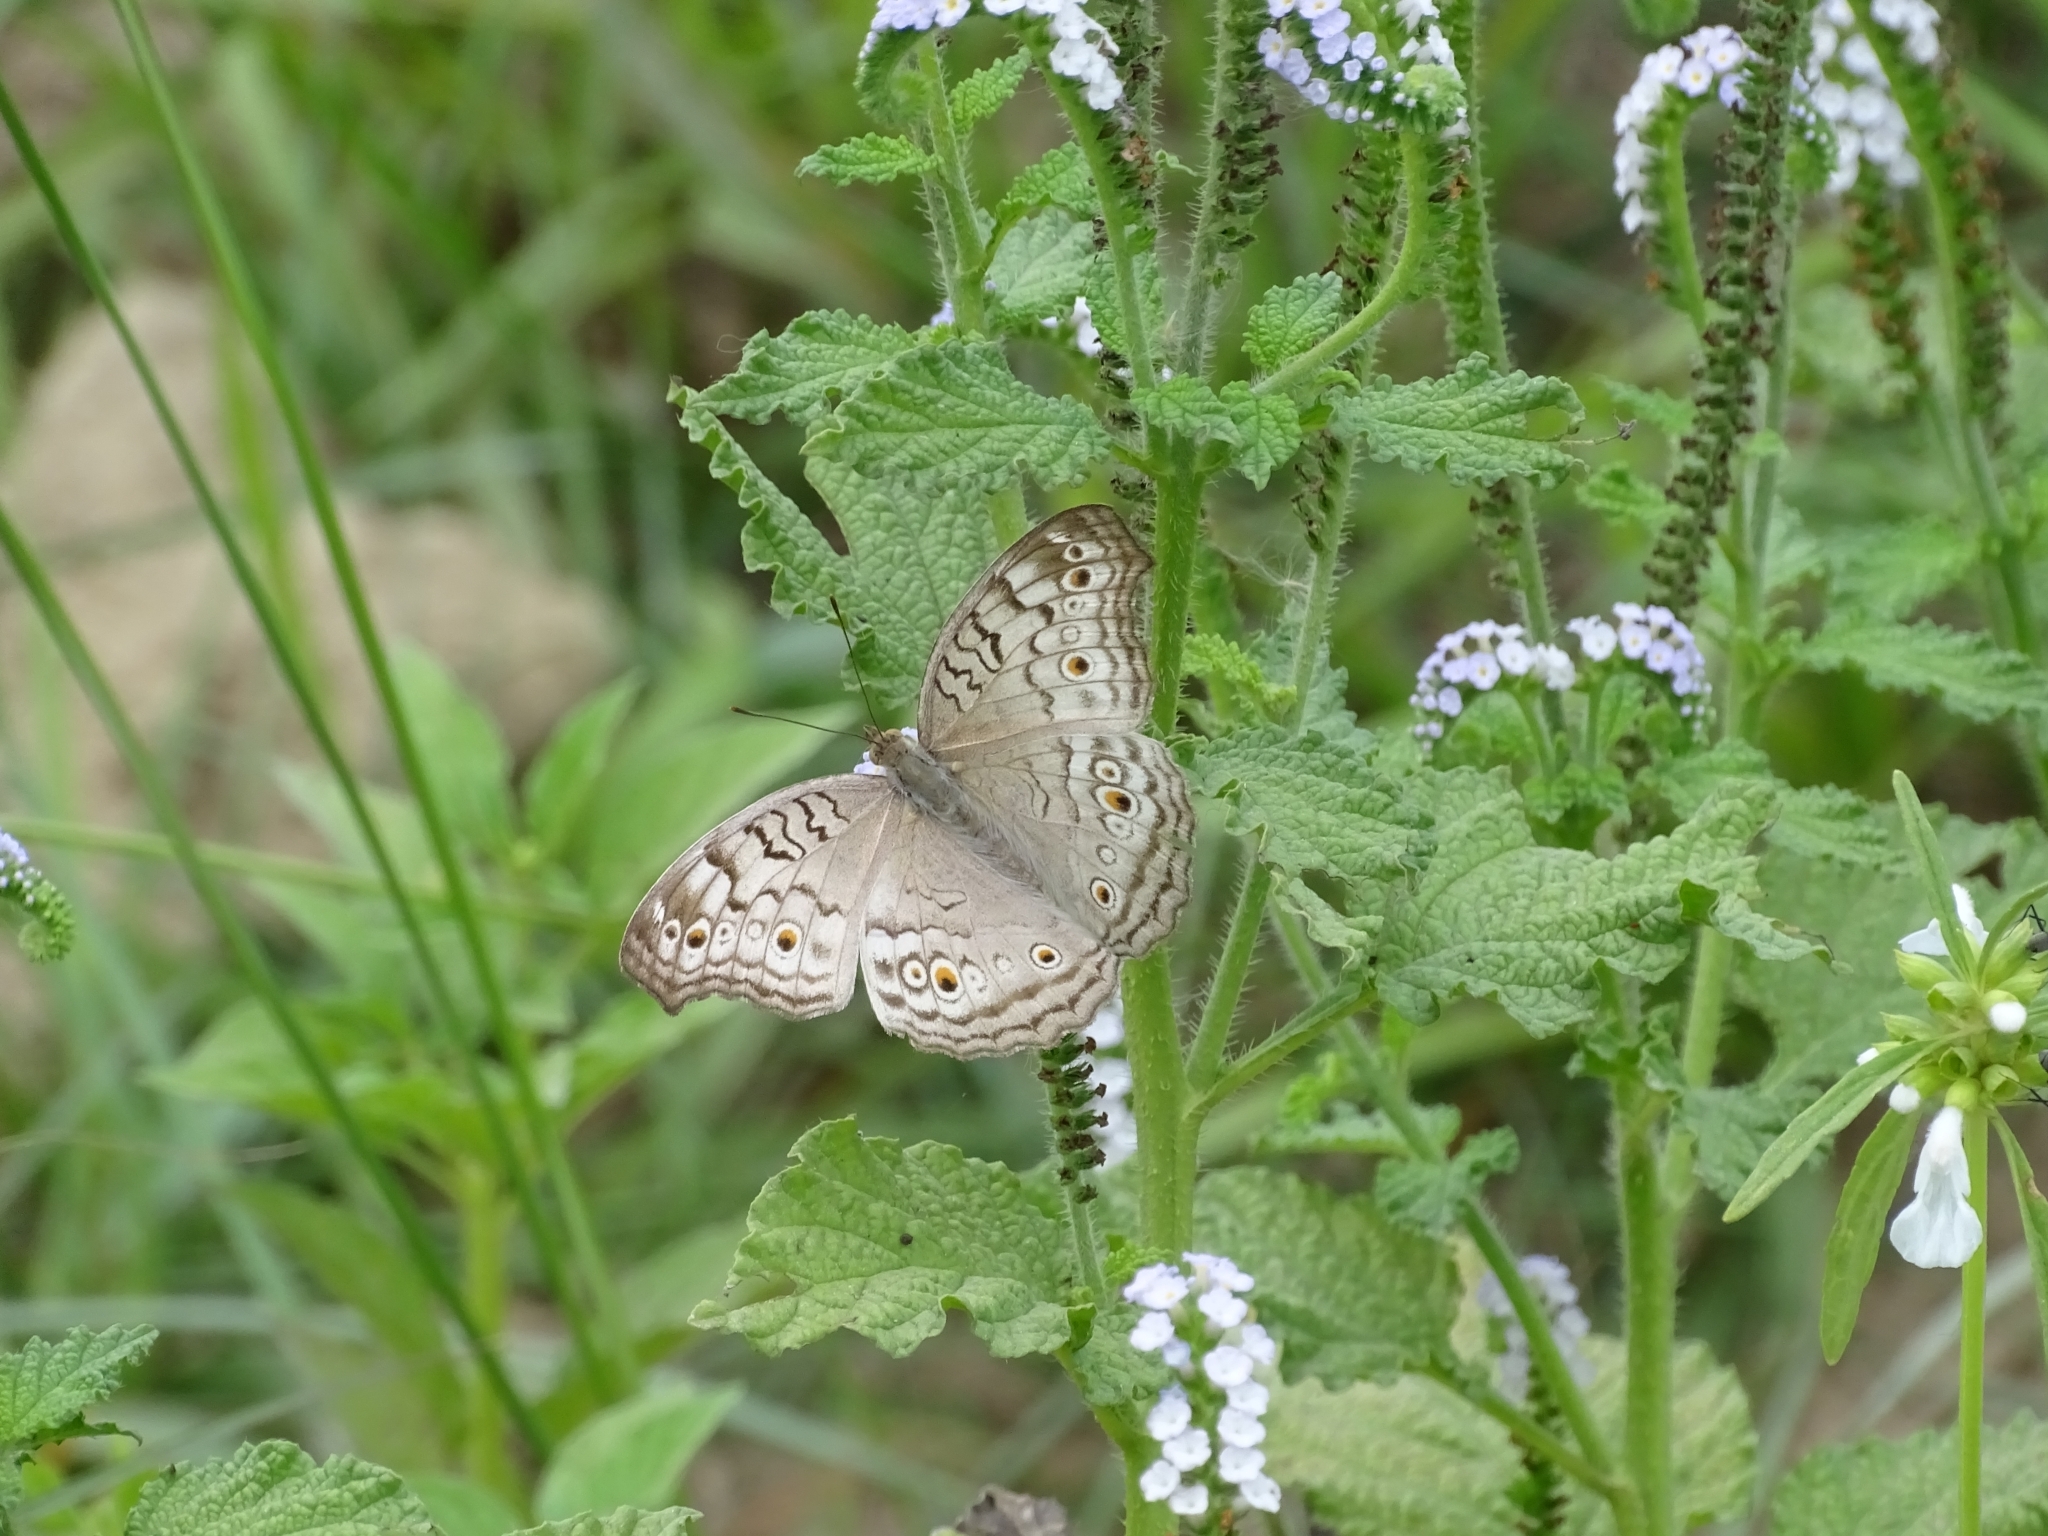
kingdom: Animalia
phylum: Arthropoda
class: Insecta
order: Lepidoptera
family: Nymphalidae
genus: Junonia
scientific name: Junonia atlites
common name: Grey pansy
